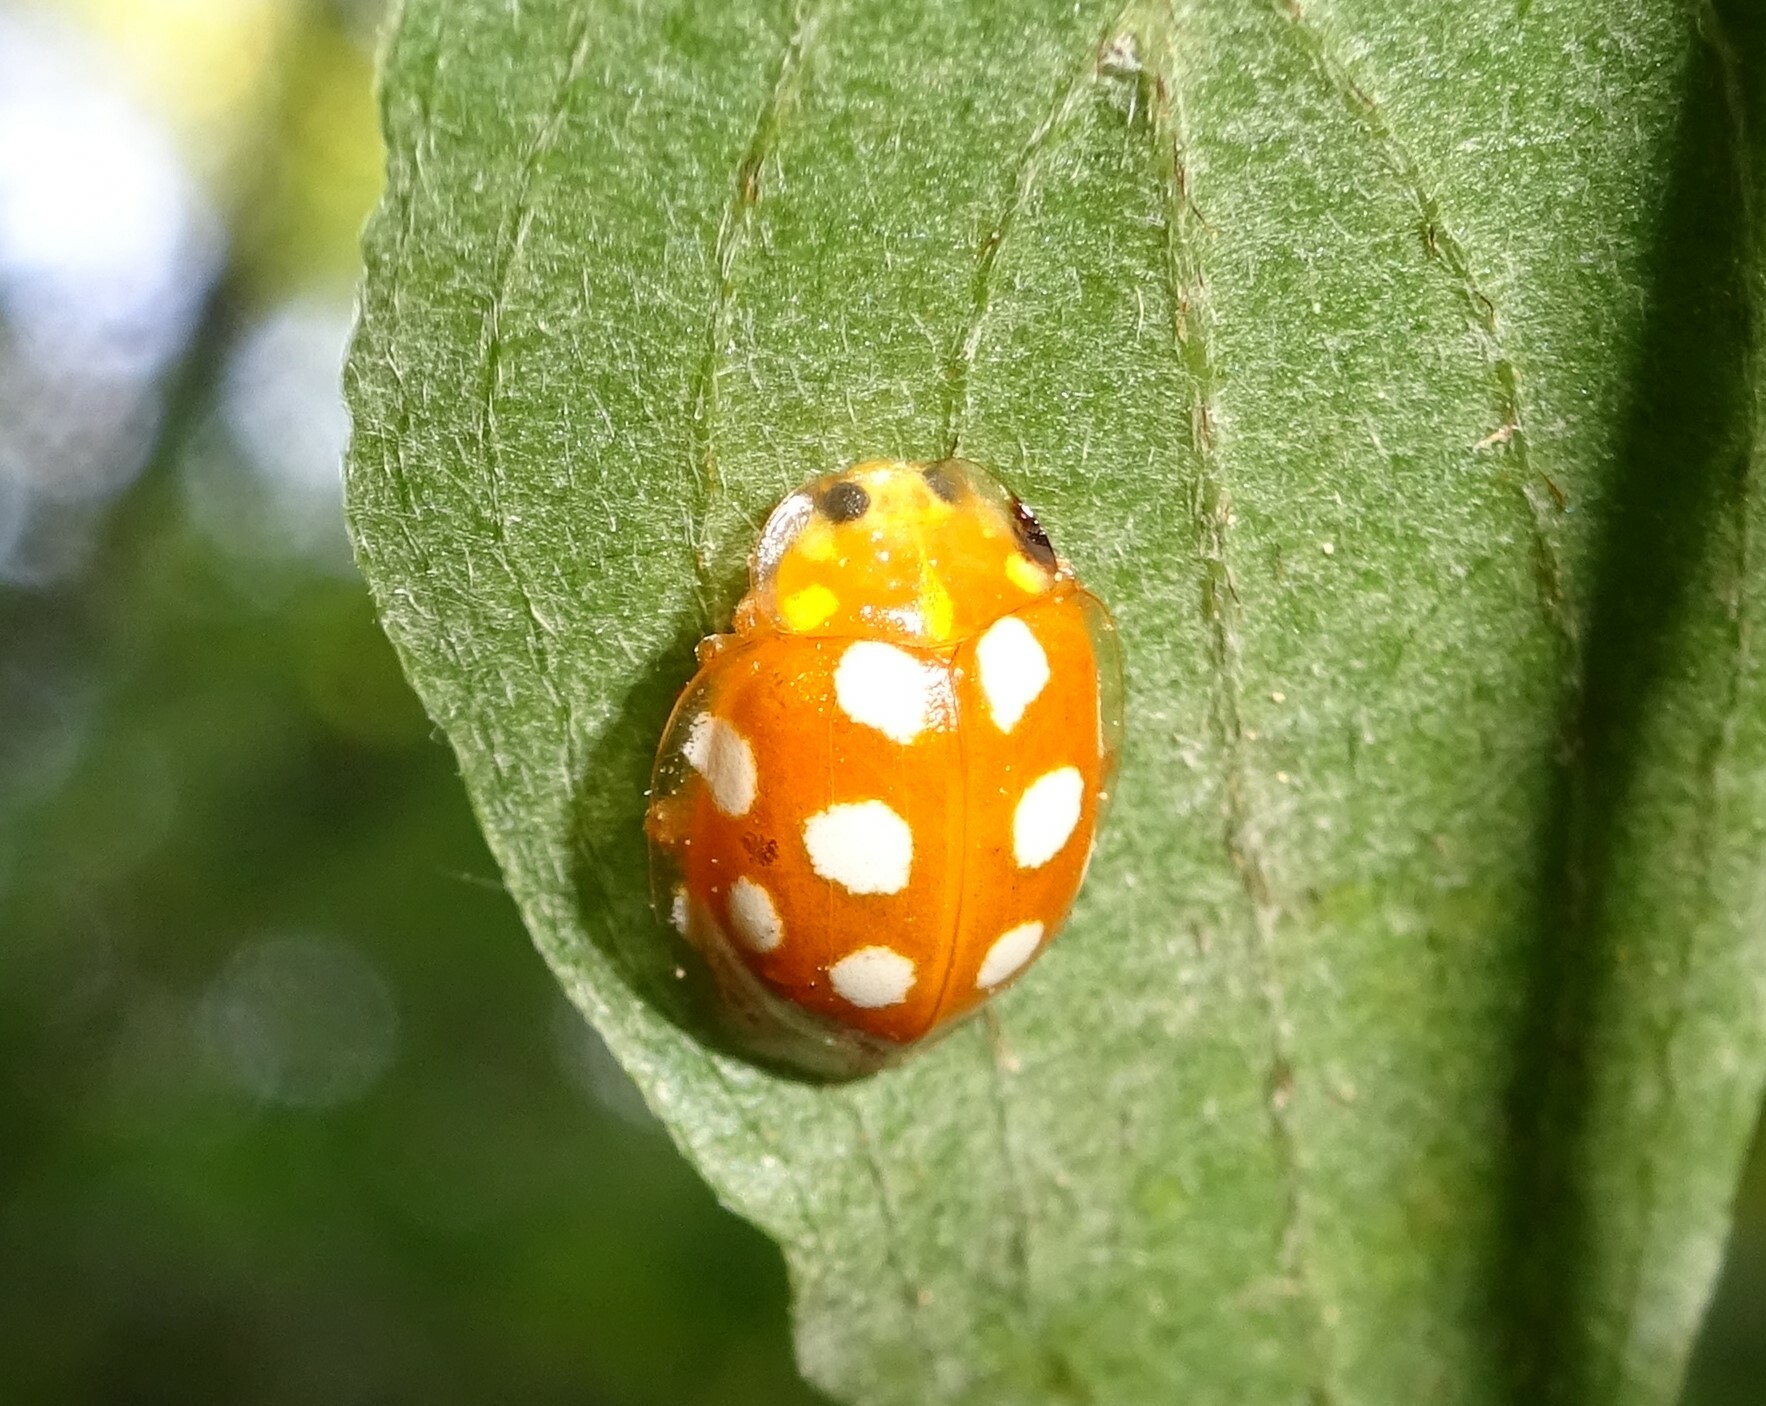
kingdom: Animalia
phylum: Arthropoda
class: Insecta
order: Coleoptera
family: Coccinellidae
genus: Vibidia
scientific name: Vibidia duodecimguttata
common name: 12-spot ladybird
